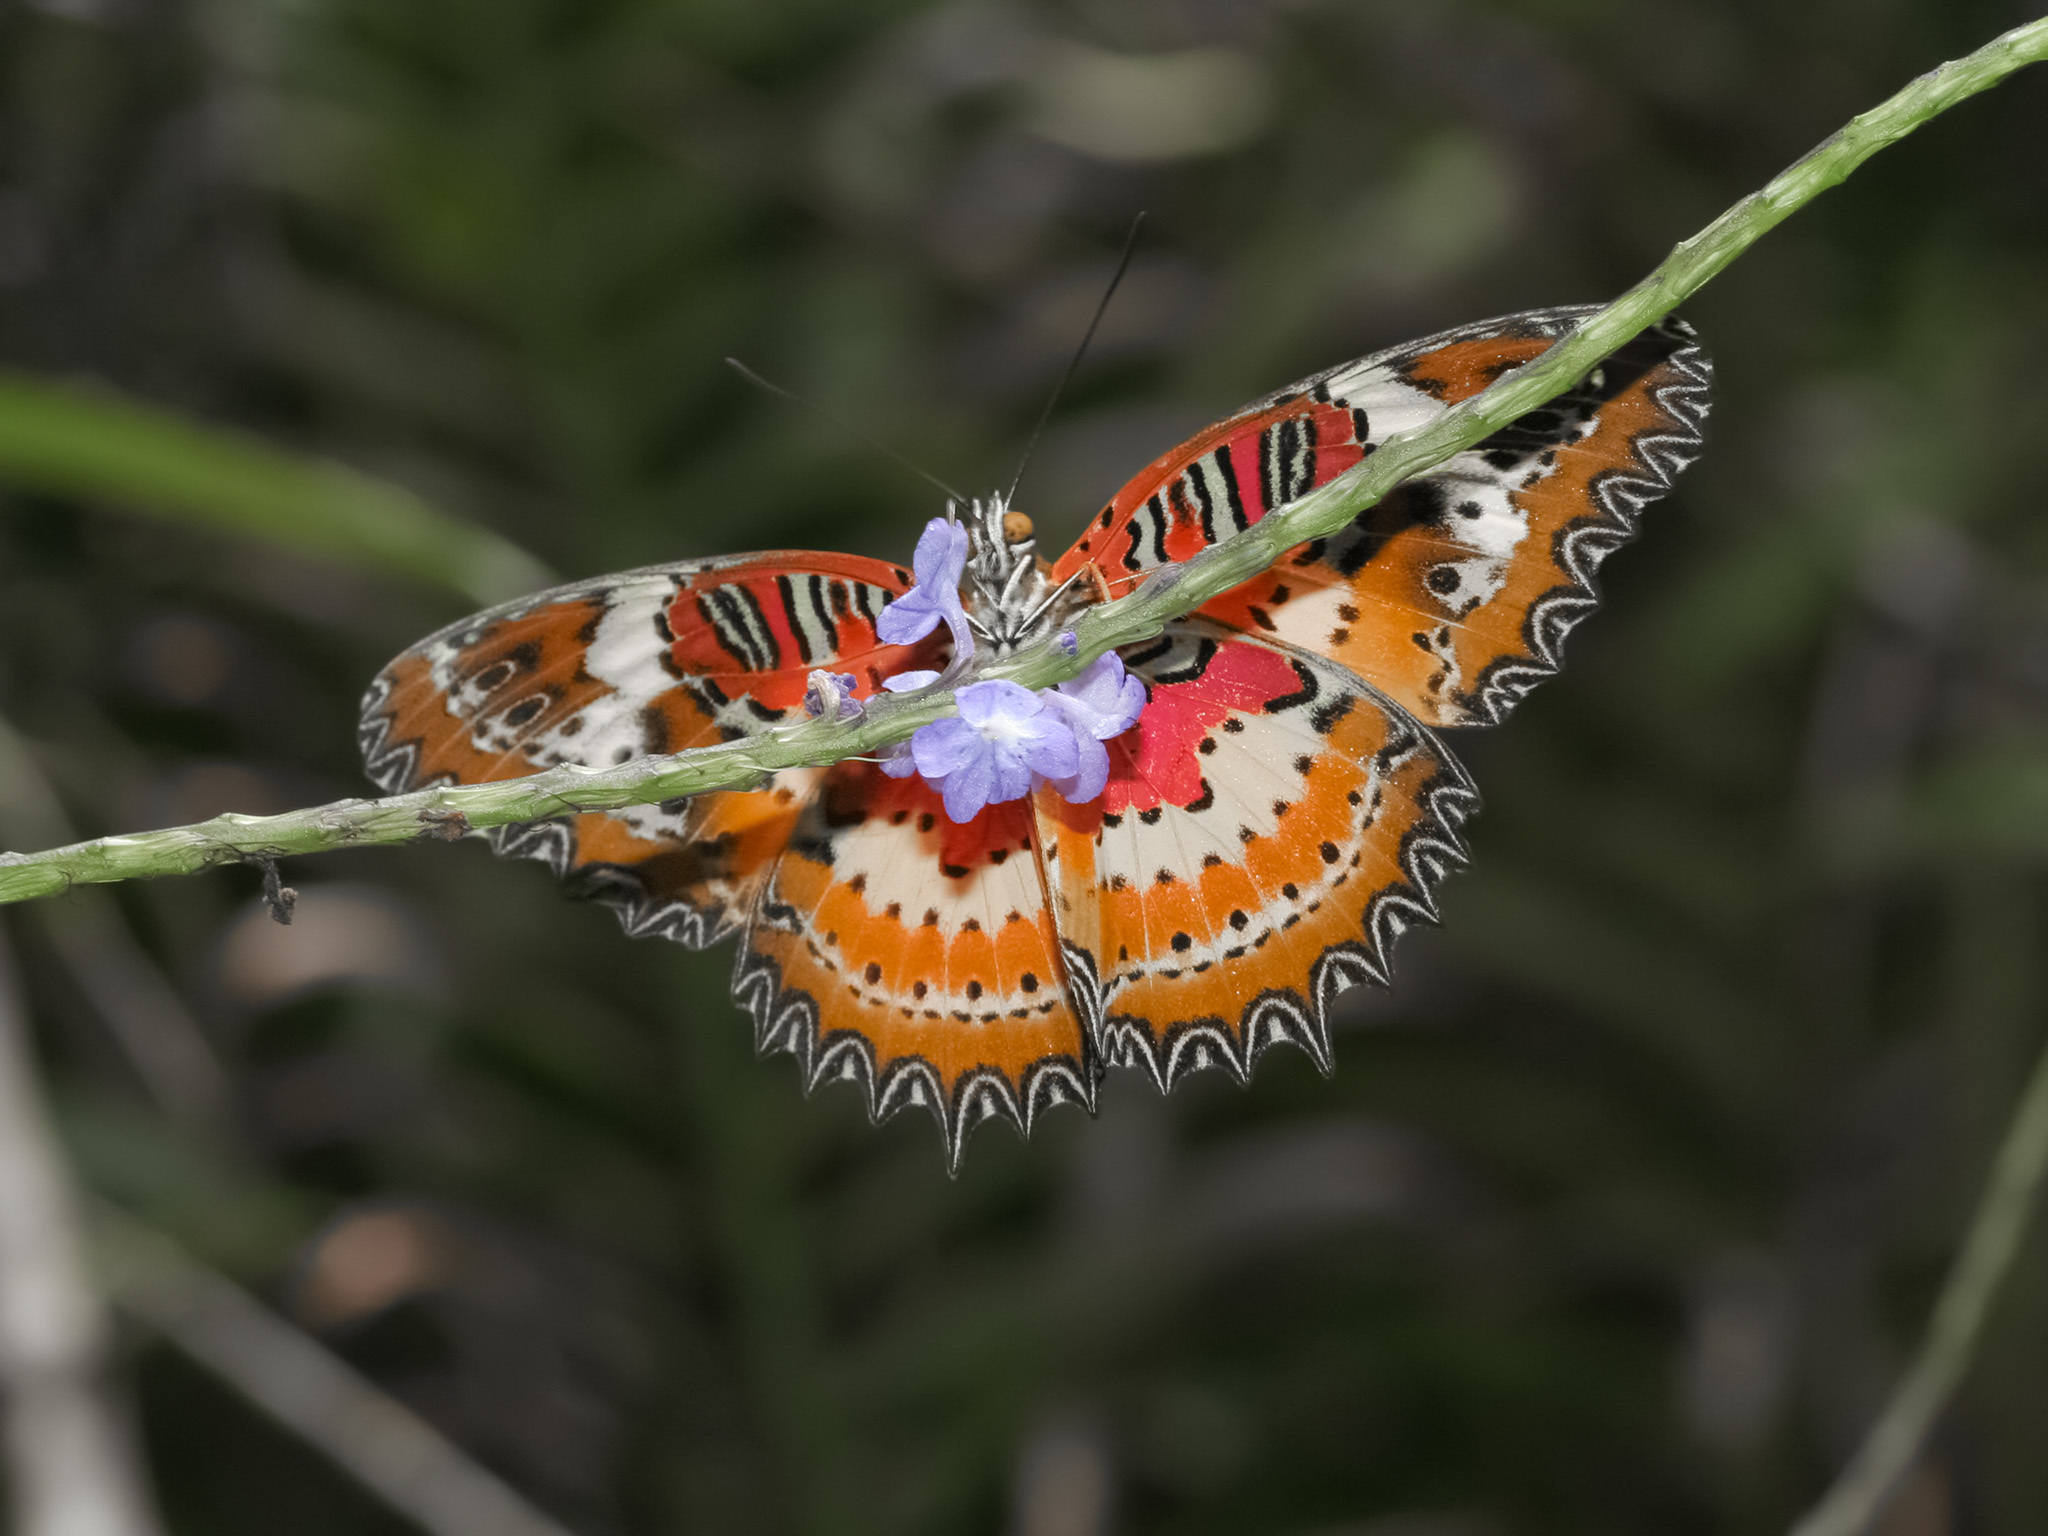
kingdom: Animalia
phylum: Arthropoda
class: Insecta
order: Lepidoptera
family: Nymphalidae
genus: Cethosia
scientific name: Cethosia penthesilea
